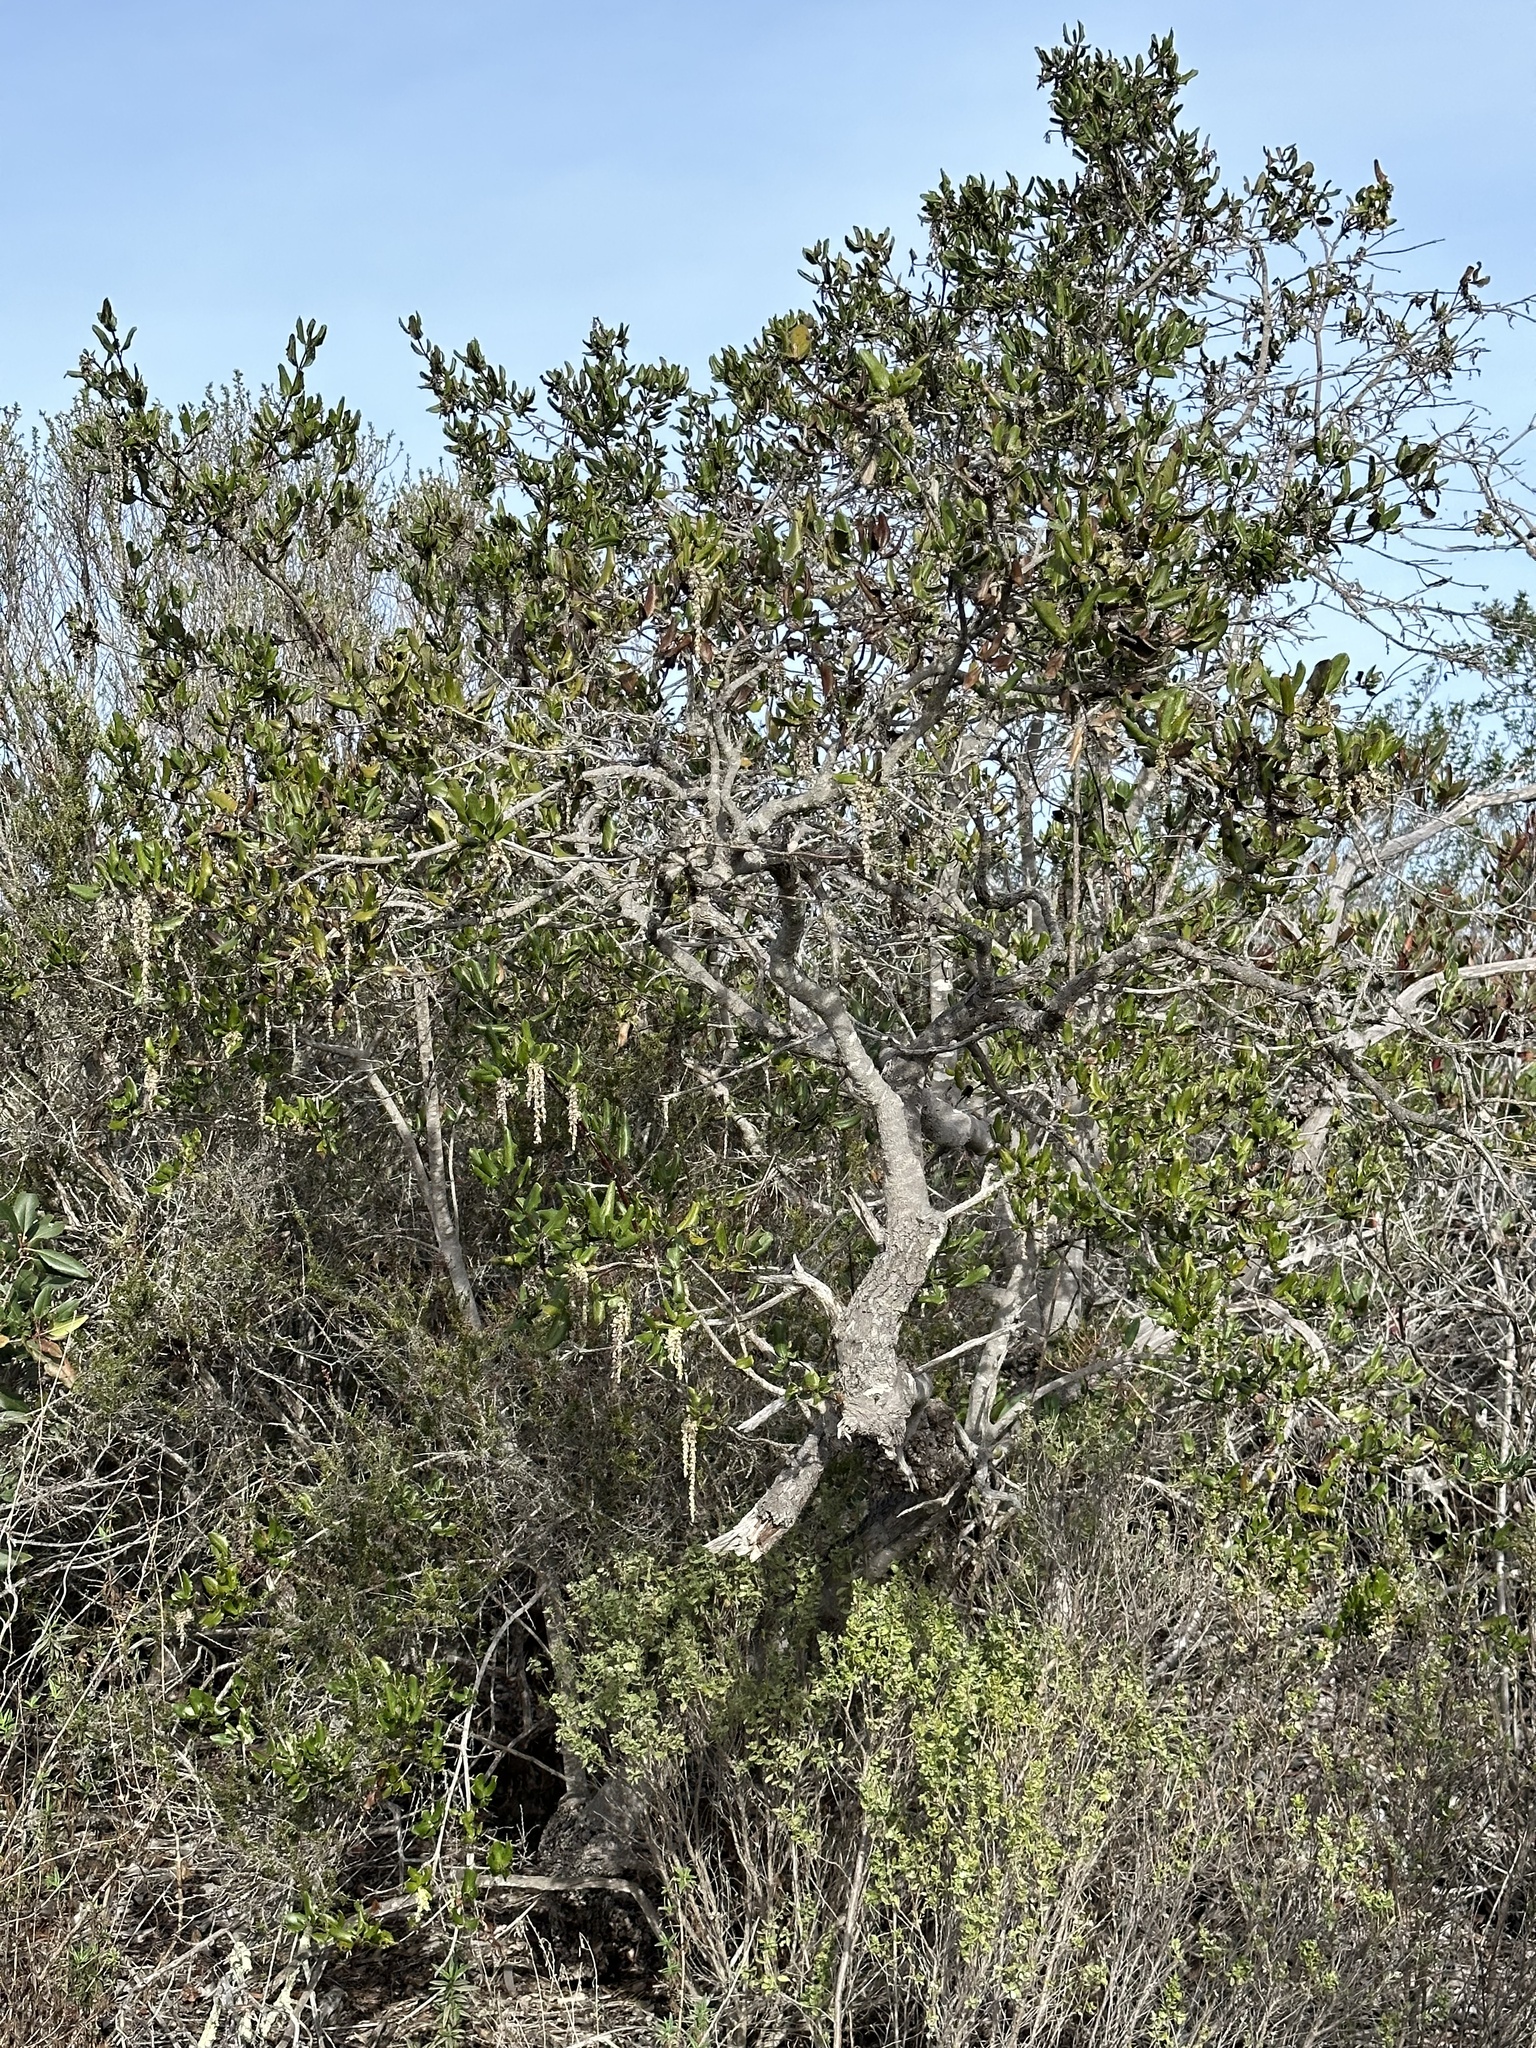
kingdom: Plantae
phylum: Tracheophyta
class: Magnoliopsida
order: Garryales
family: Garryaceae
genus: Garrya
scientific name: Garrya elliptica
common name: Silk-tassel
